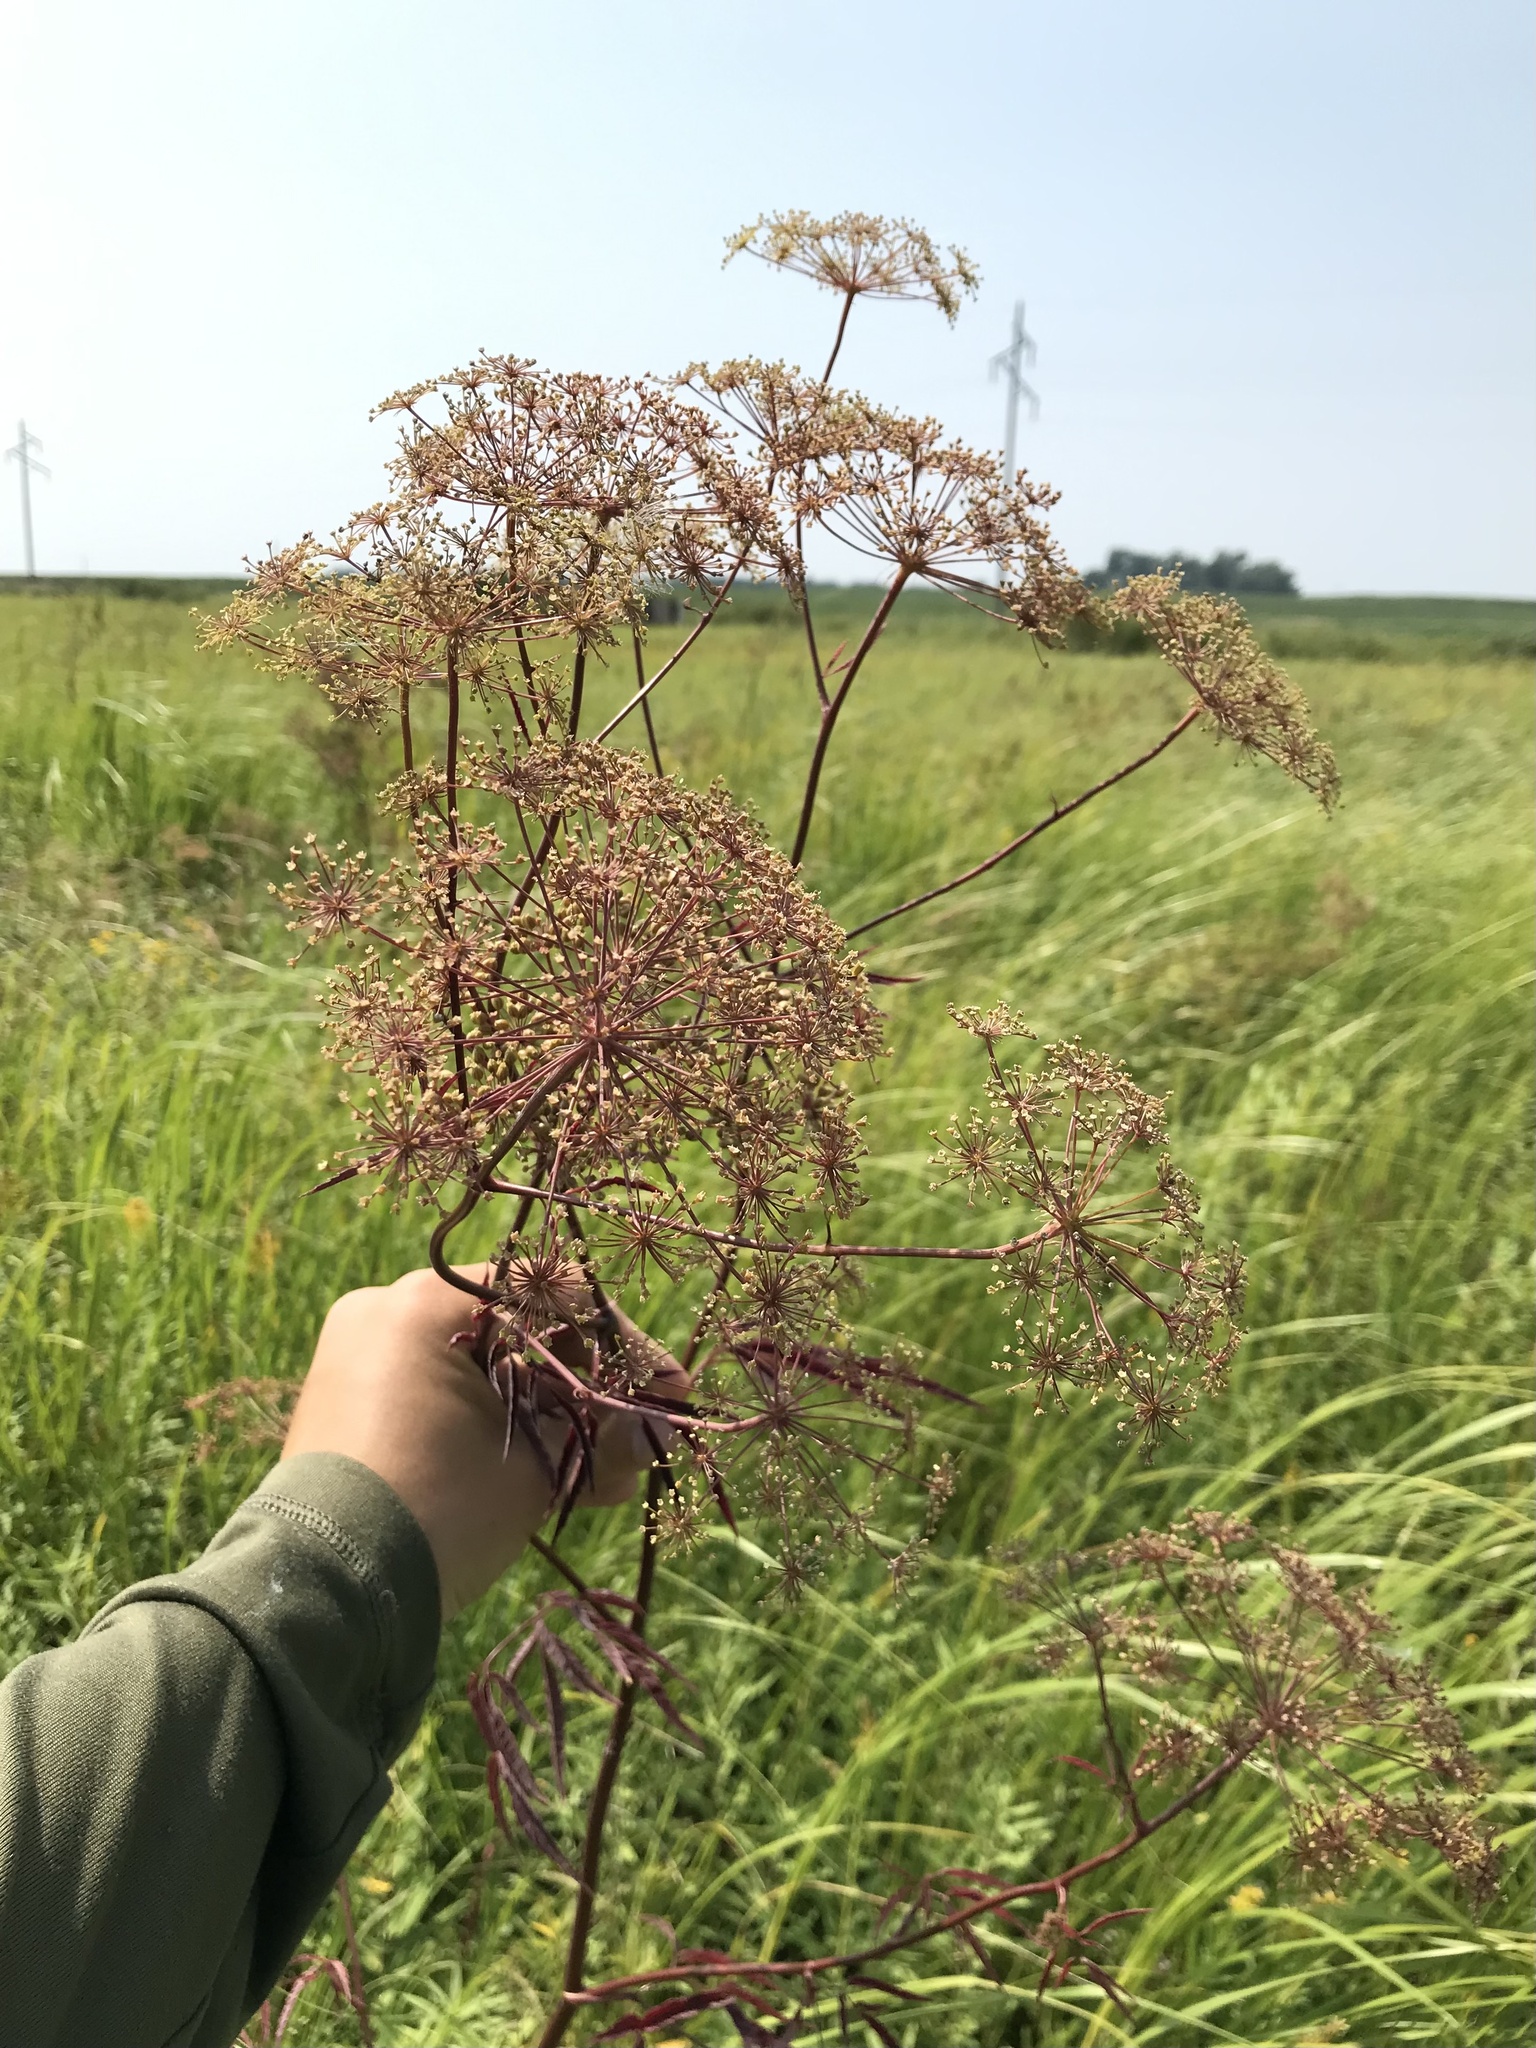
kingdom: Plantae
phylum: Tracheophyta
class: Magnoliopsida
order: Apiales
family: Apiaceae
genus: Cicuta
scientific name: Cicuta maculata
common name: Spotted cowbane
